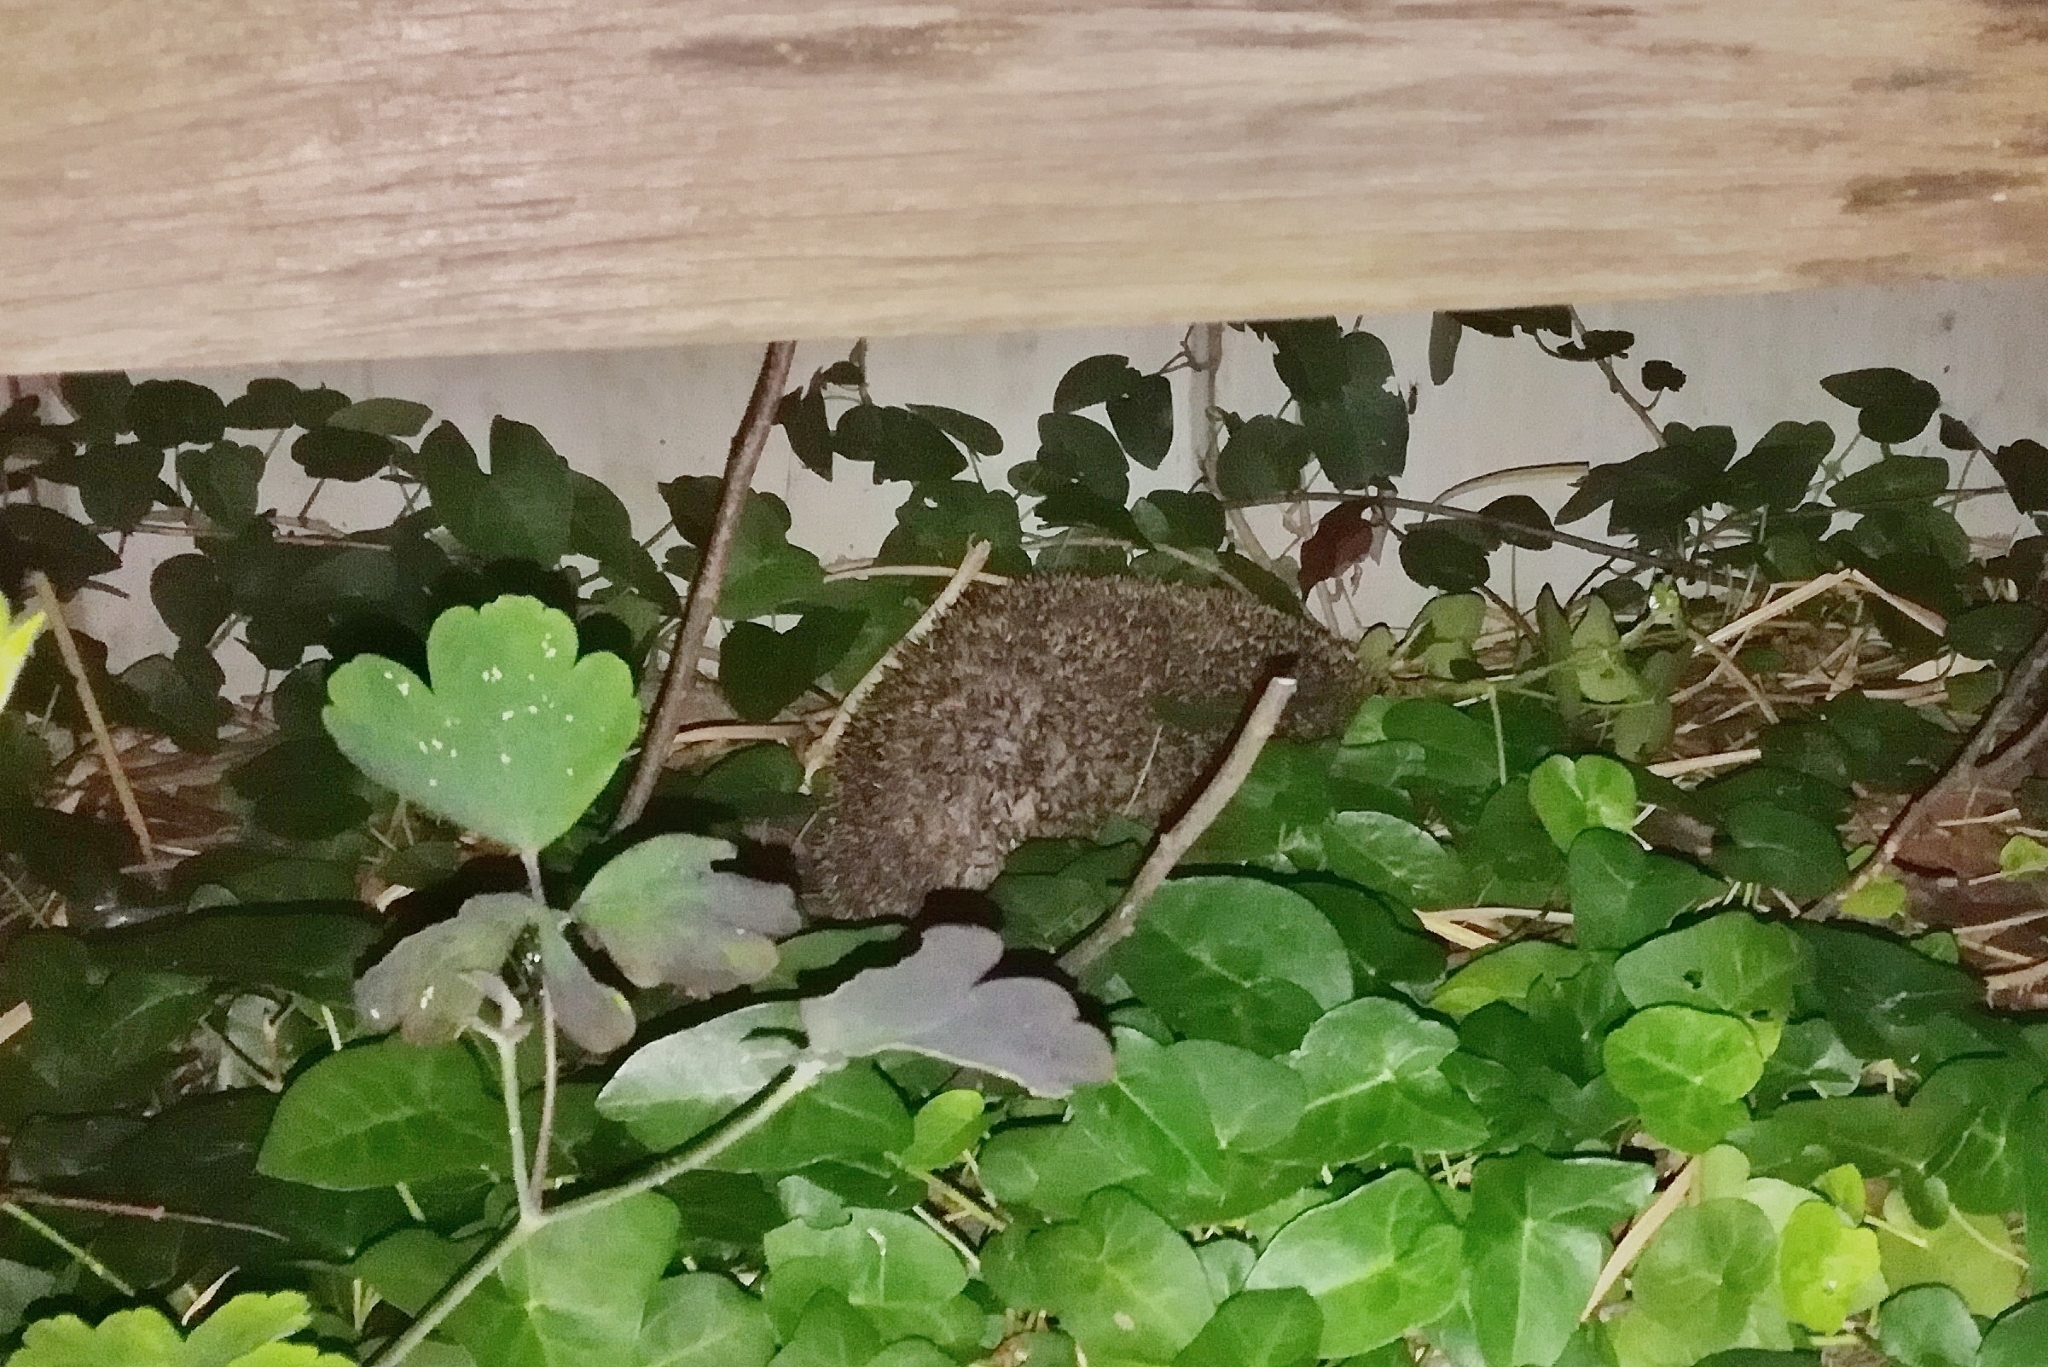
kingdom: Animalia
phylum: Chordata
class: Mammalia
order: Erinaceomorpha
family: Erinaceidae
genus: Erinaceus
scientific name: Erinaceus europaeus
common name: West european hedgehog
